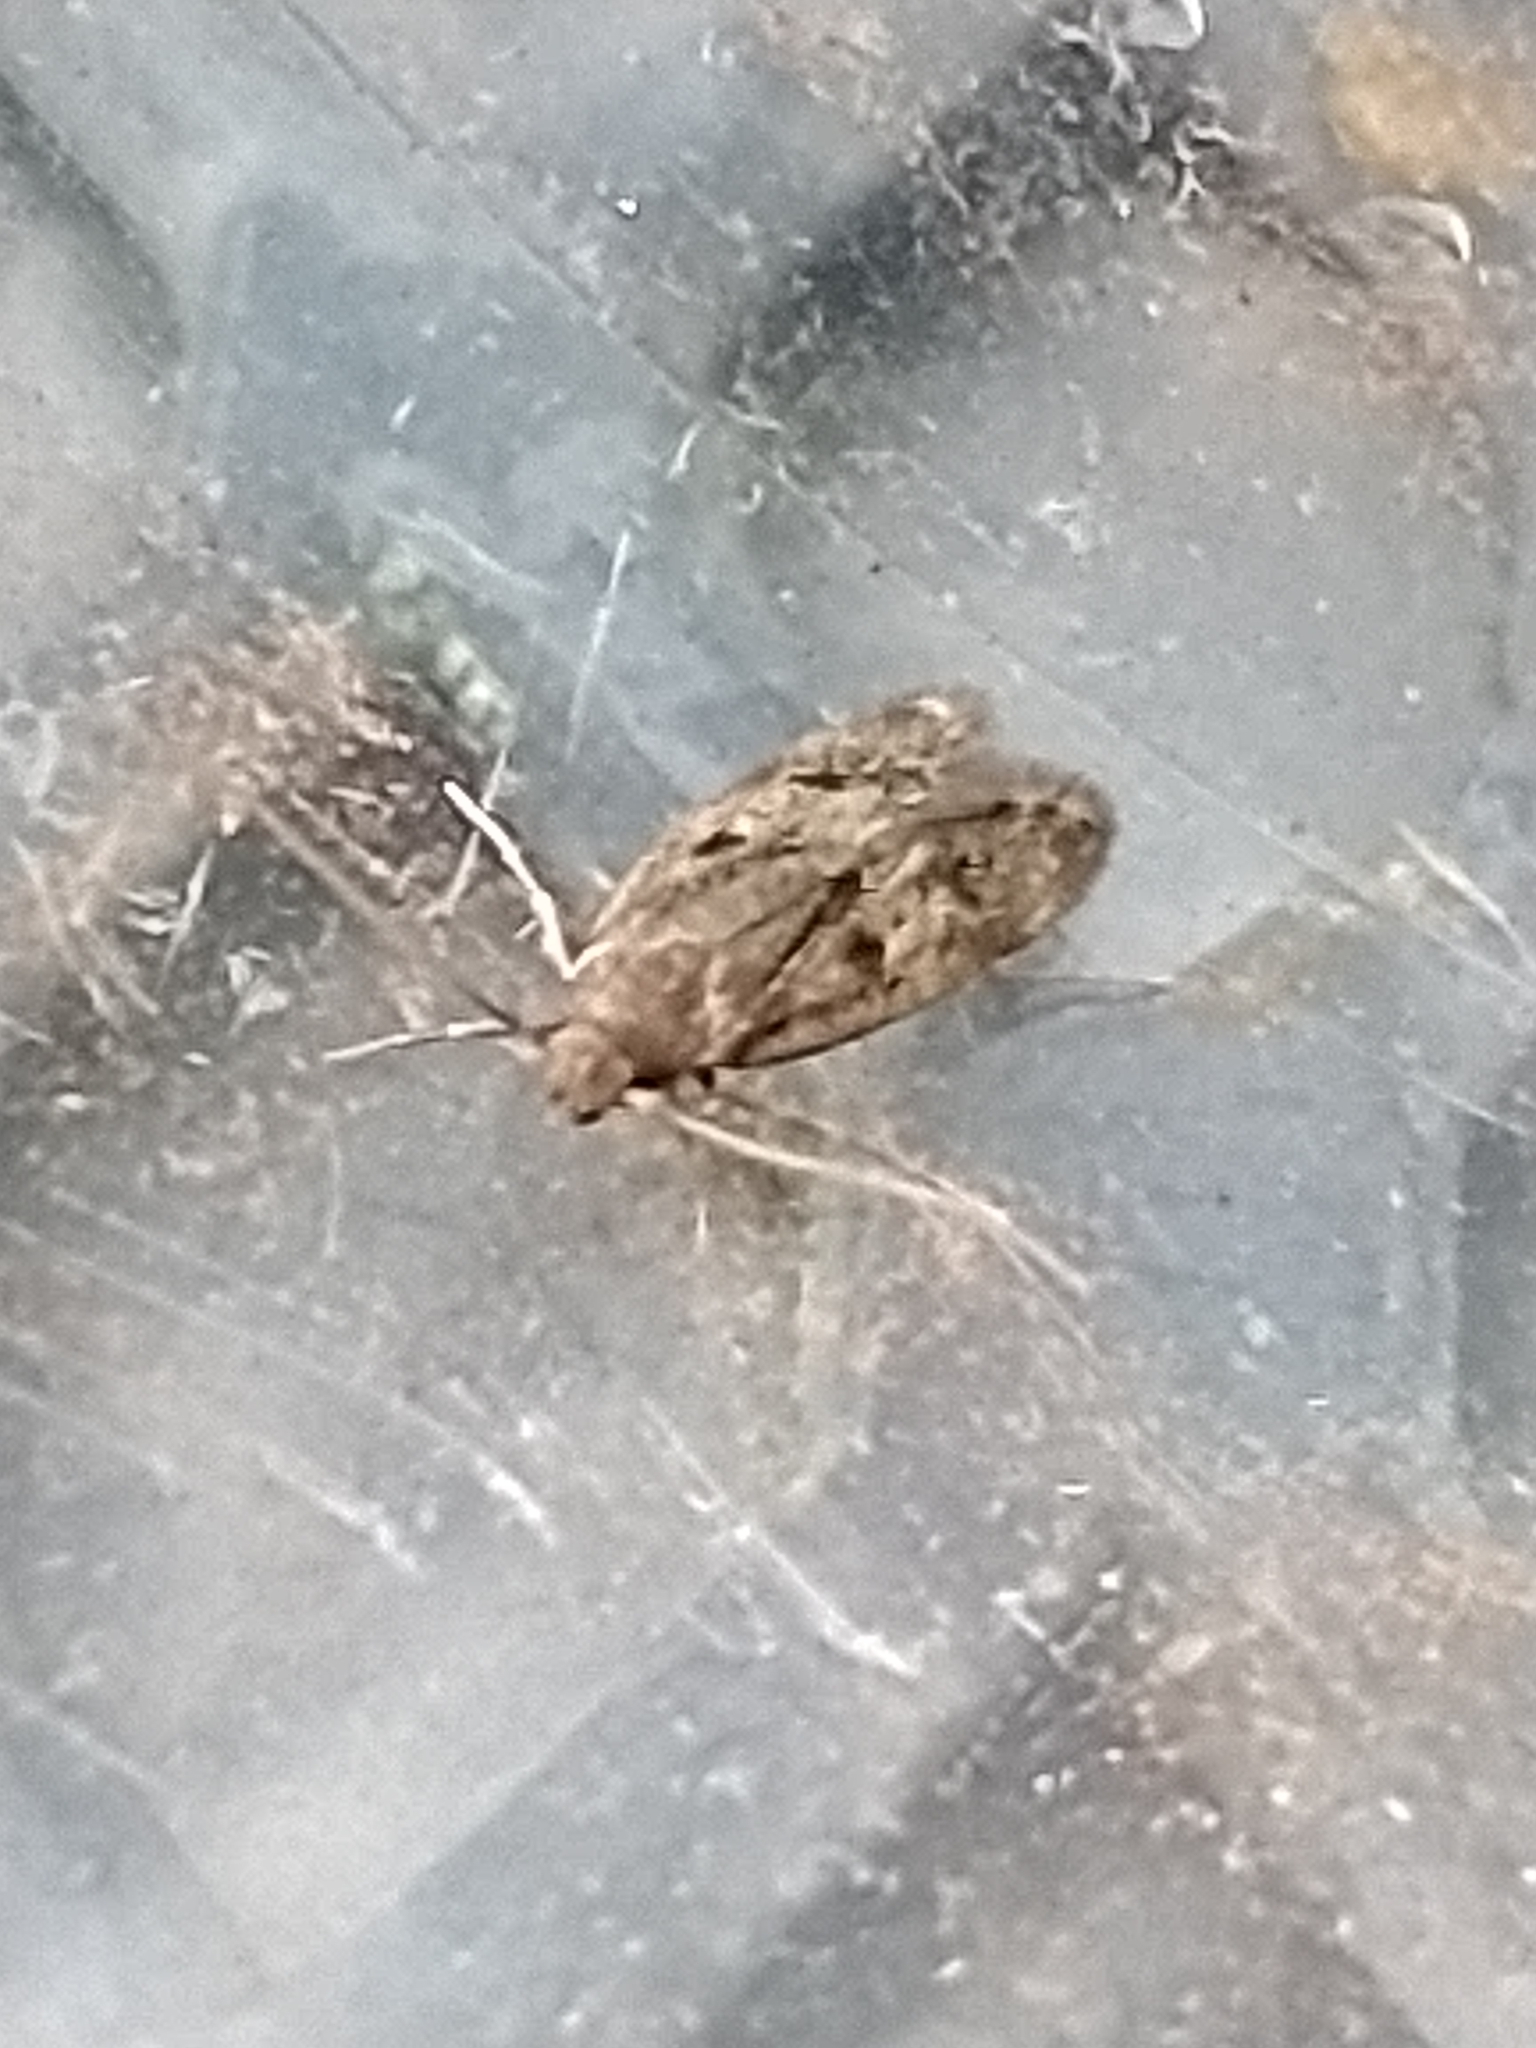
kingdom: Animalia
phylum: Arthropoda
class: Insecta
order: Lepidoptera
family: Oecophoridae
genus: Borkhausenia
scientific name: Borkhausenia fuscescens
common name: Small dingy tubic
